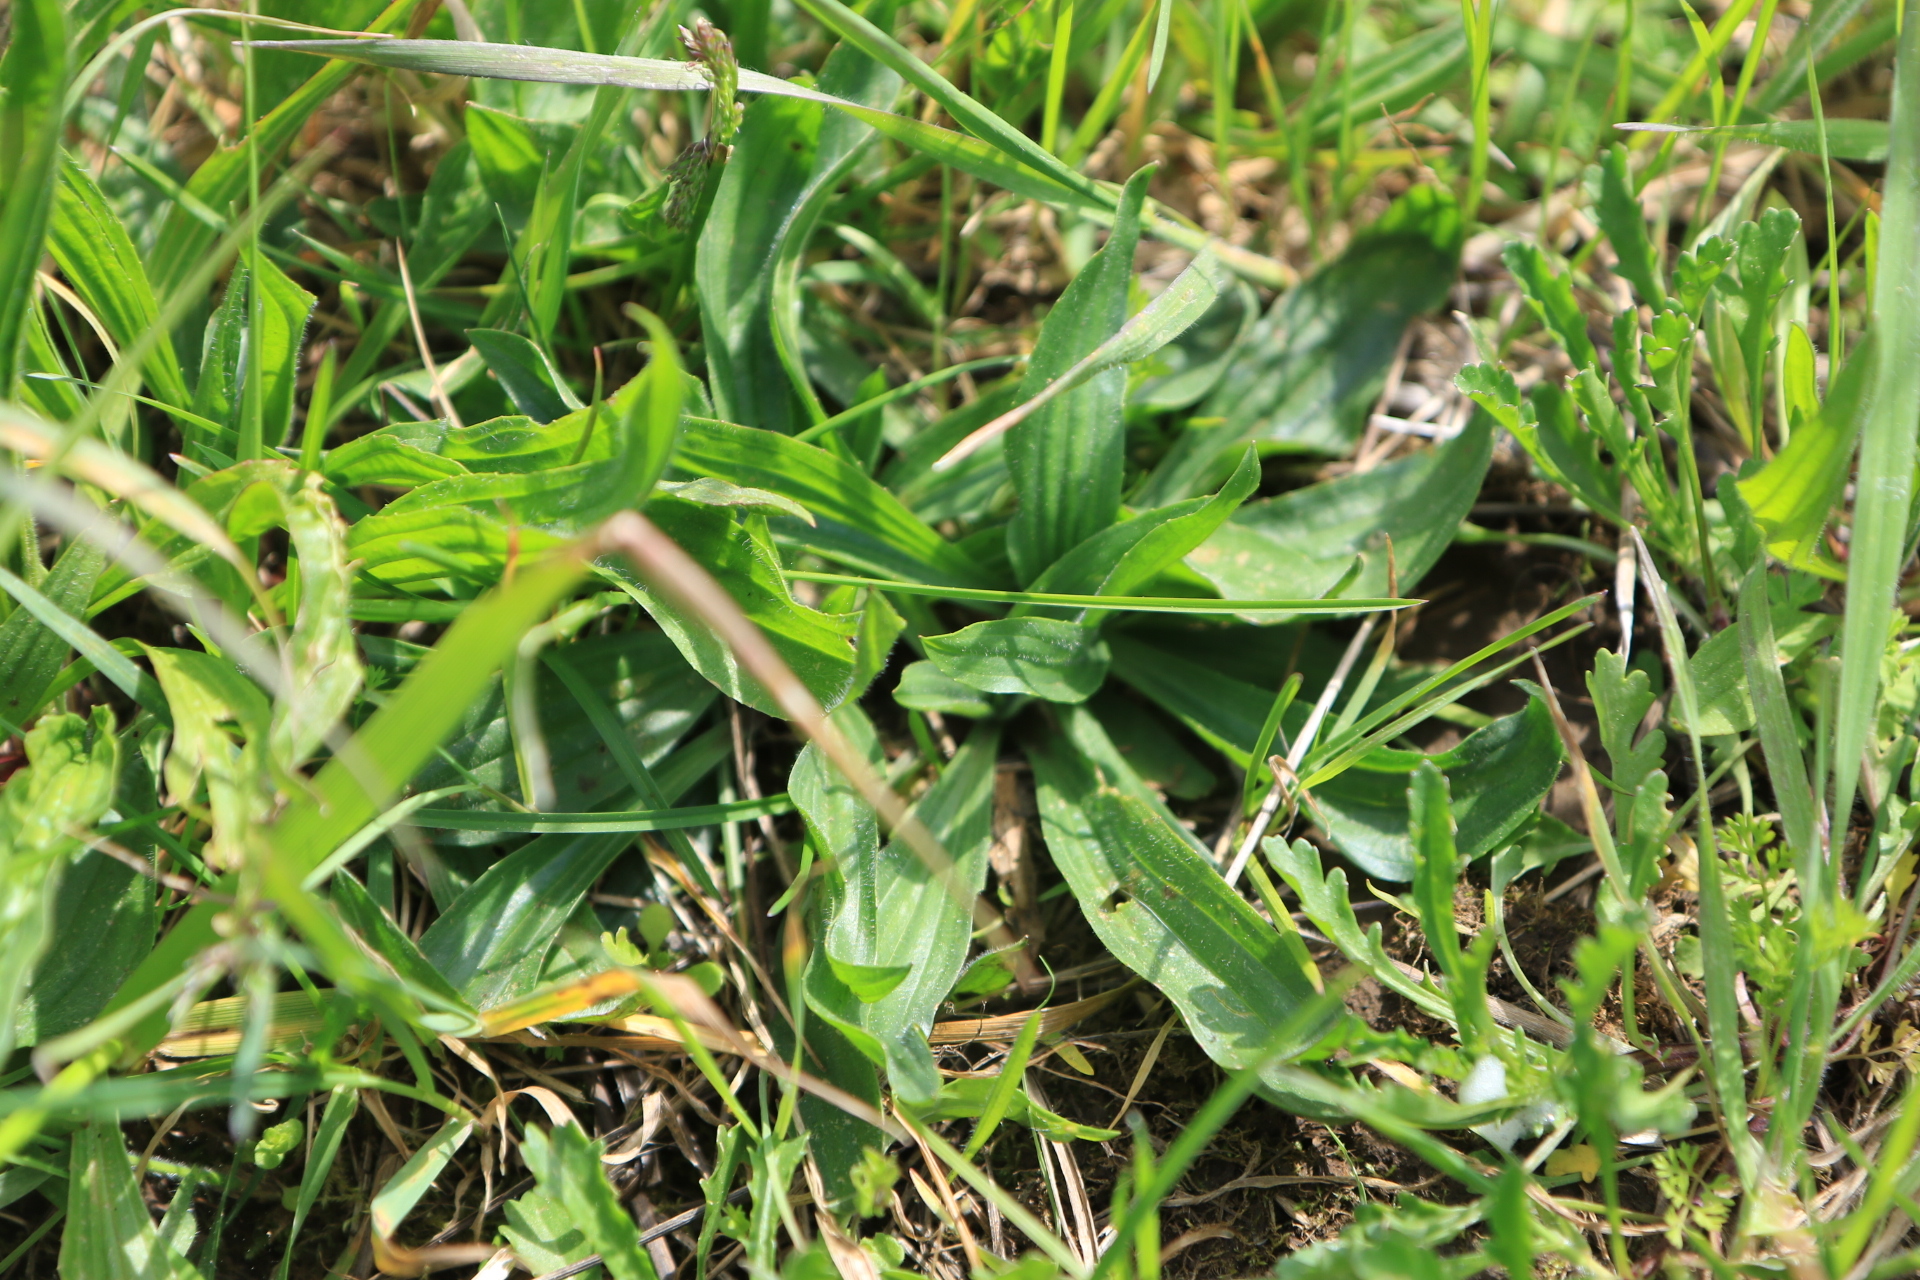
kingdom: Plantae
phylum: Tracheophyta
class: Magnoliopsida
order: Lamiales
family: Plantaginaceae
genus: Plantago
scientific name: Plantago lanceolata
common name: Ribwort plantain
